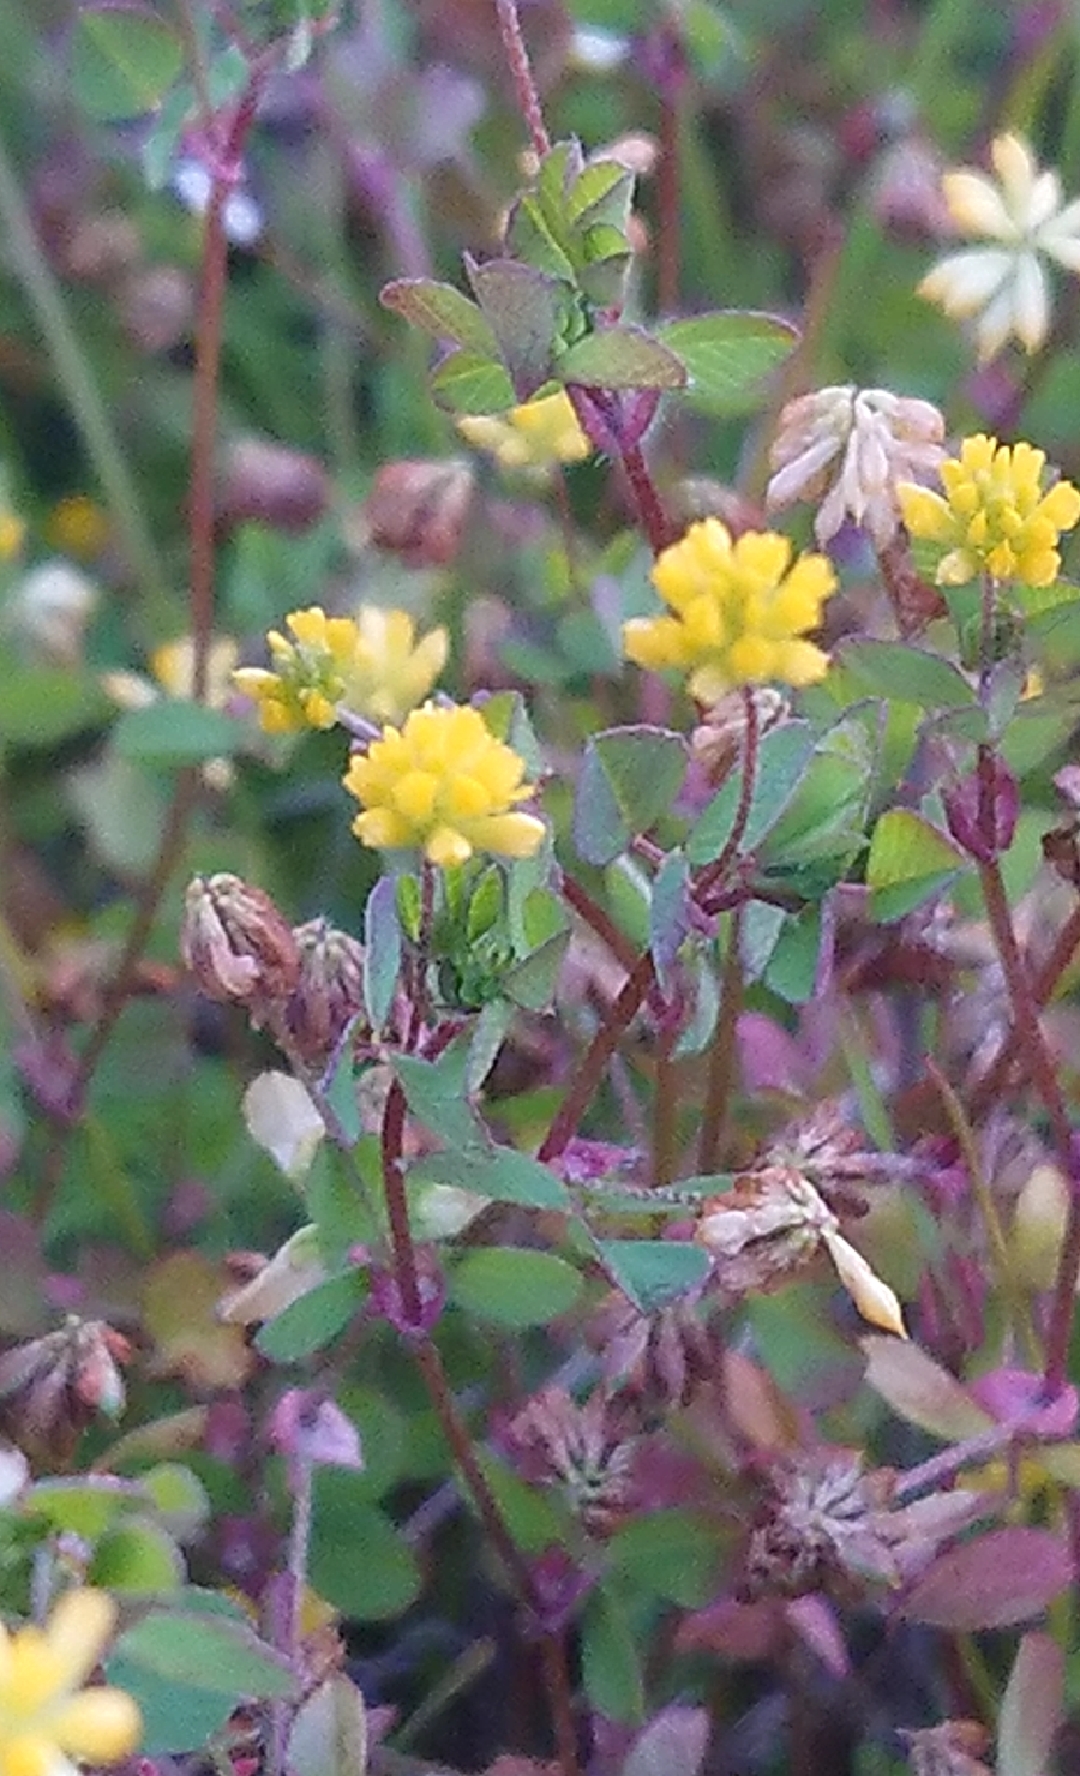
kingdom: Plantae
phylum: Tracheophyta
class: Magnoliopsida
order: Fabales
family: Fabaceae
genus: Trifolium
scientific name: Trifolium dubium
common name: Suckling clover
